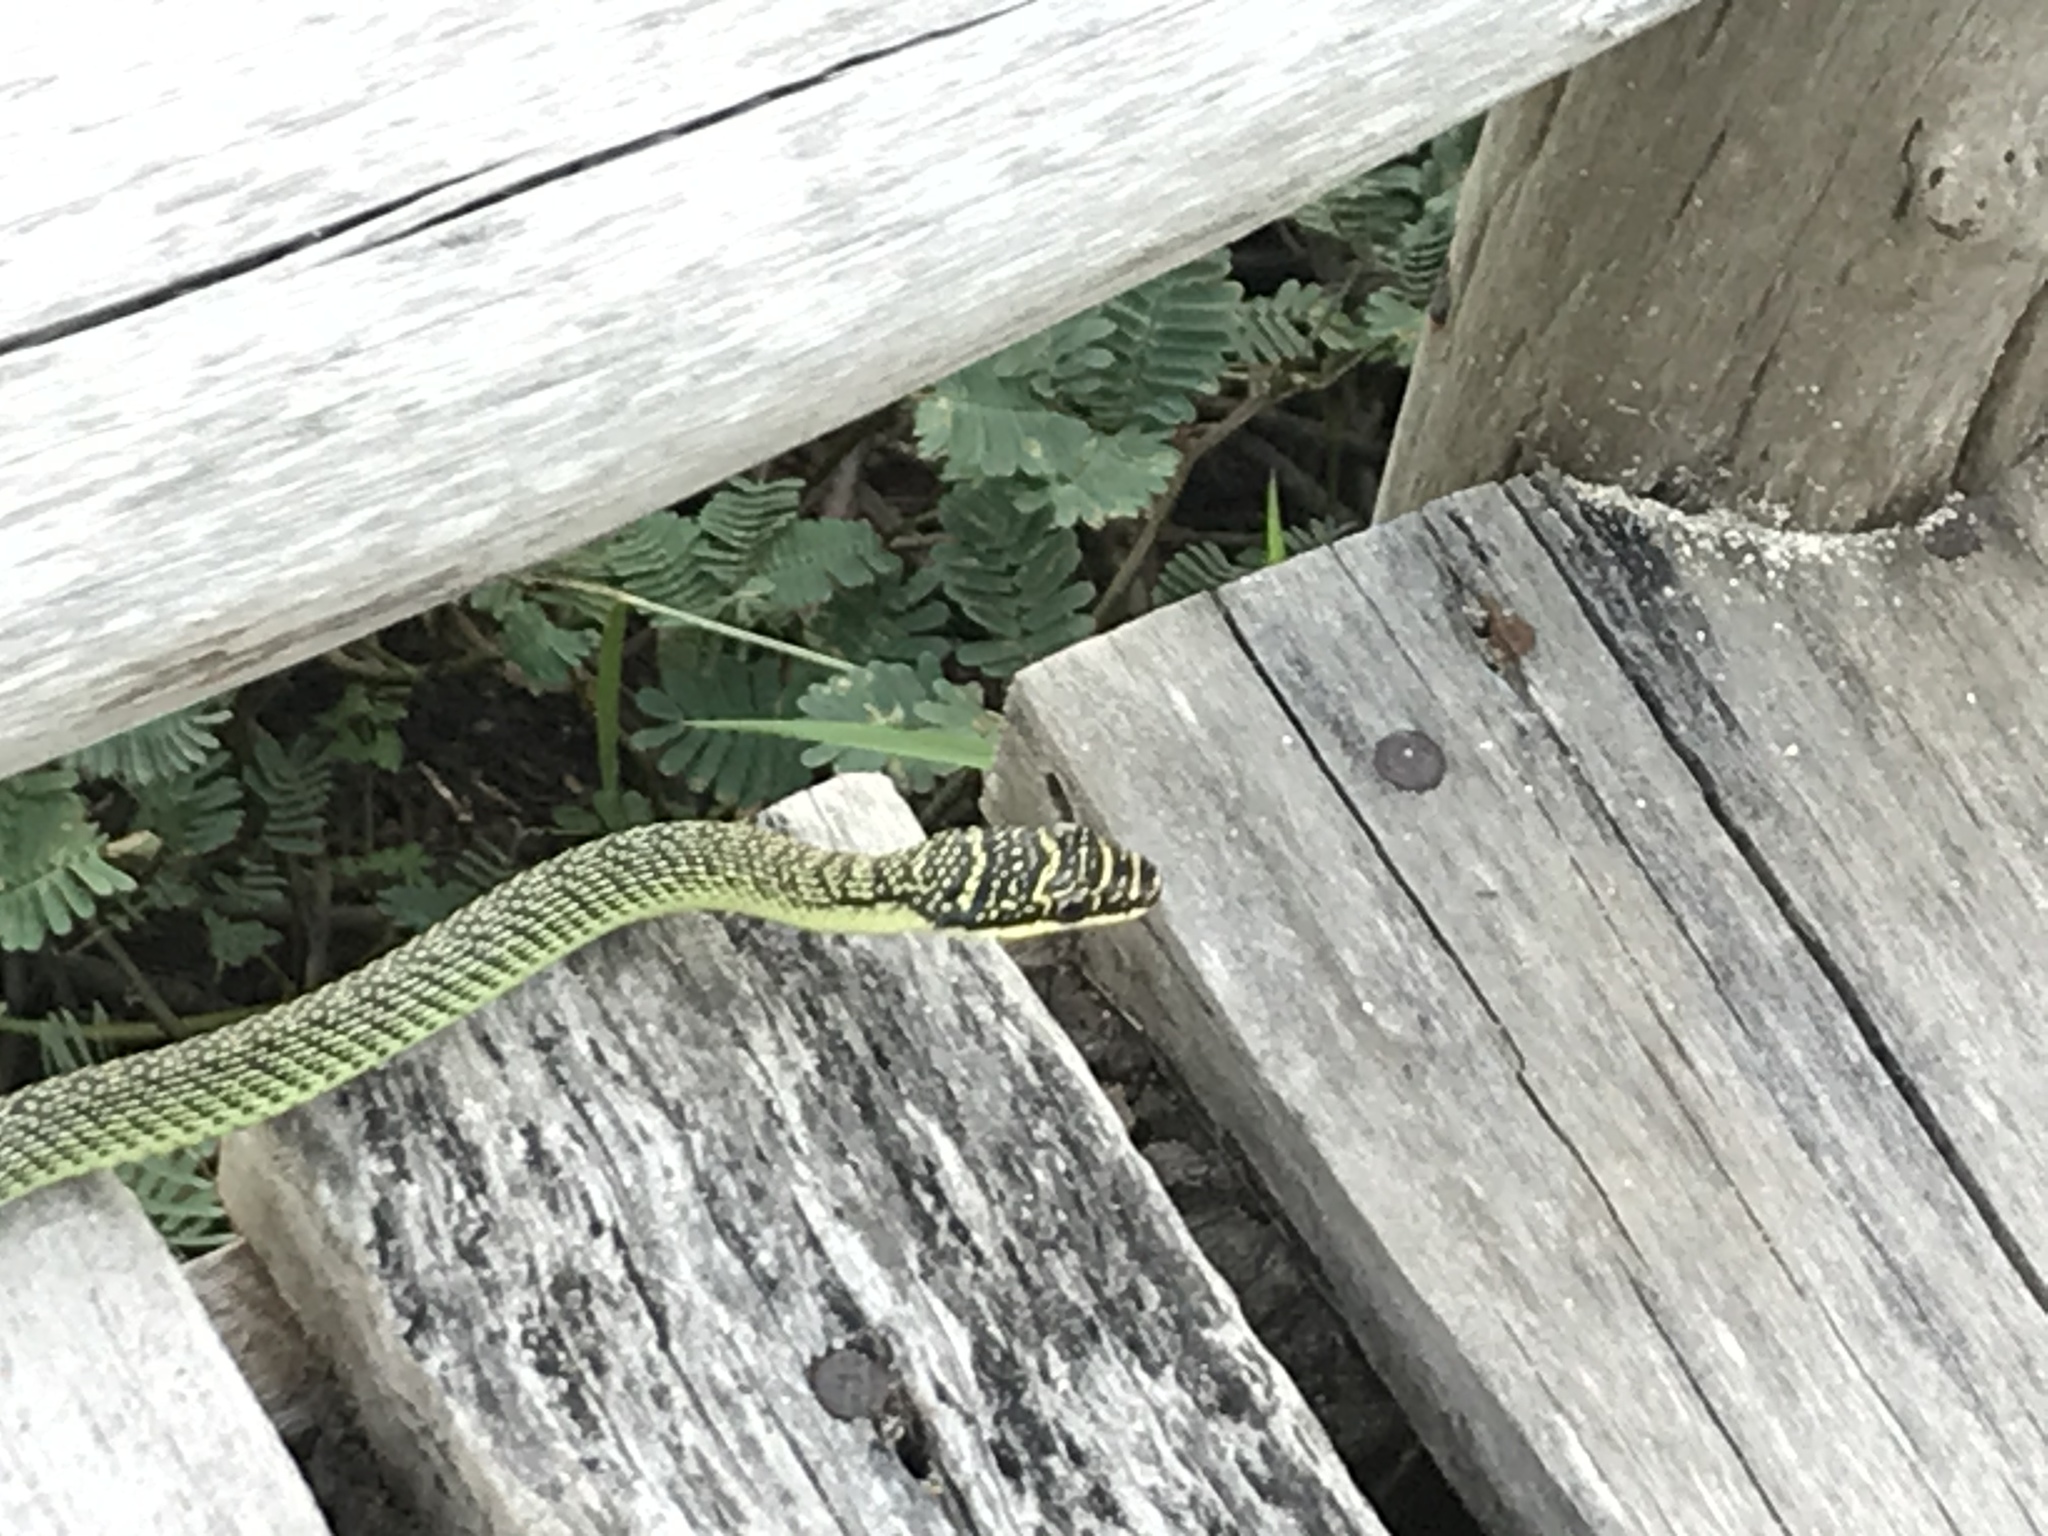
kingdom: Animalia
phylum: Chordata
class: Squamata
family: Colubridae
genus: Chrysopelea
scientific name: Chrysopelea ornata
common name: Golden flying snake
